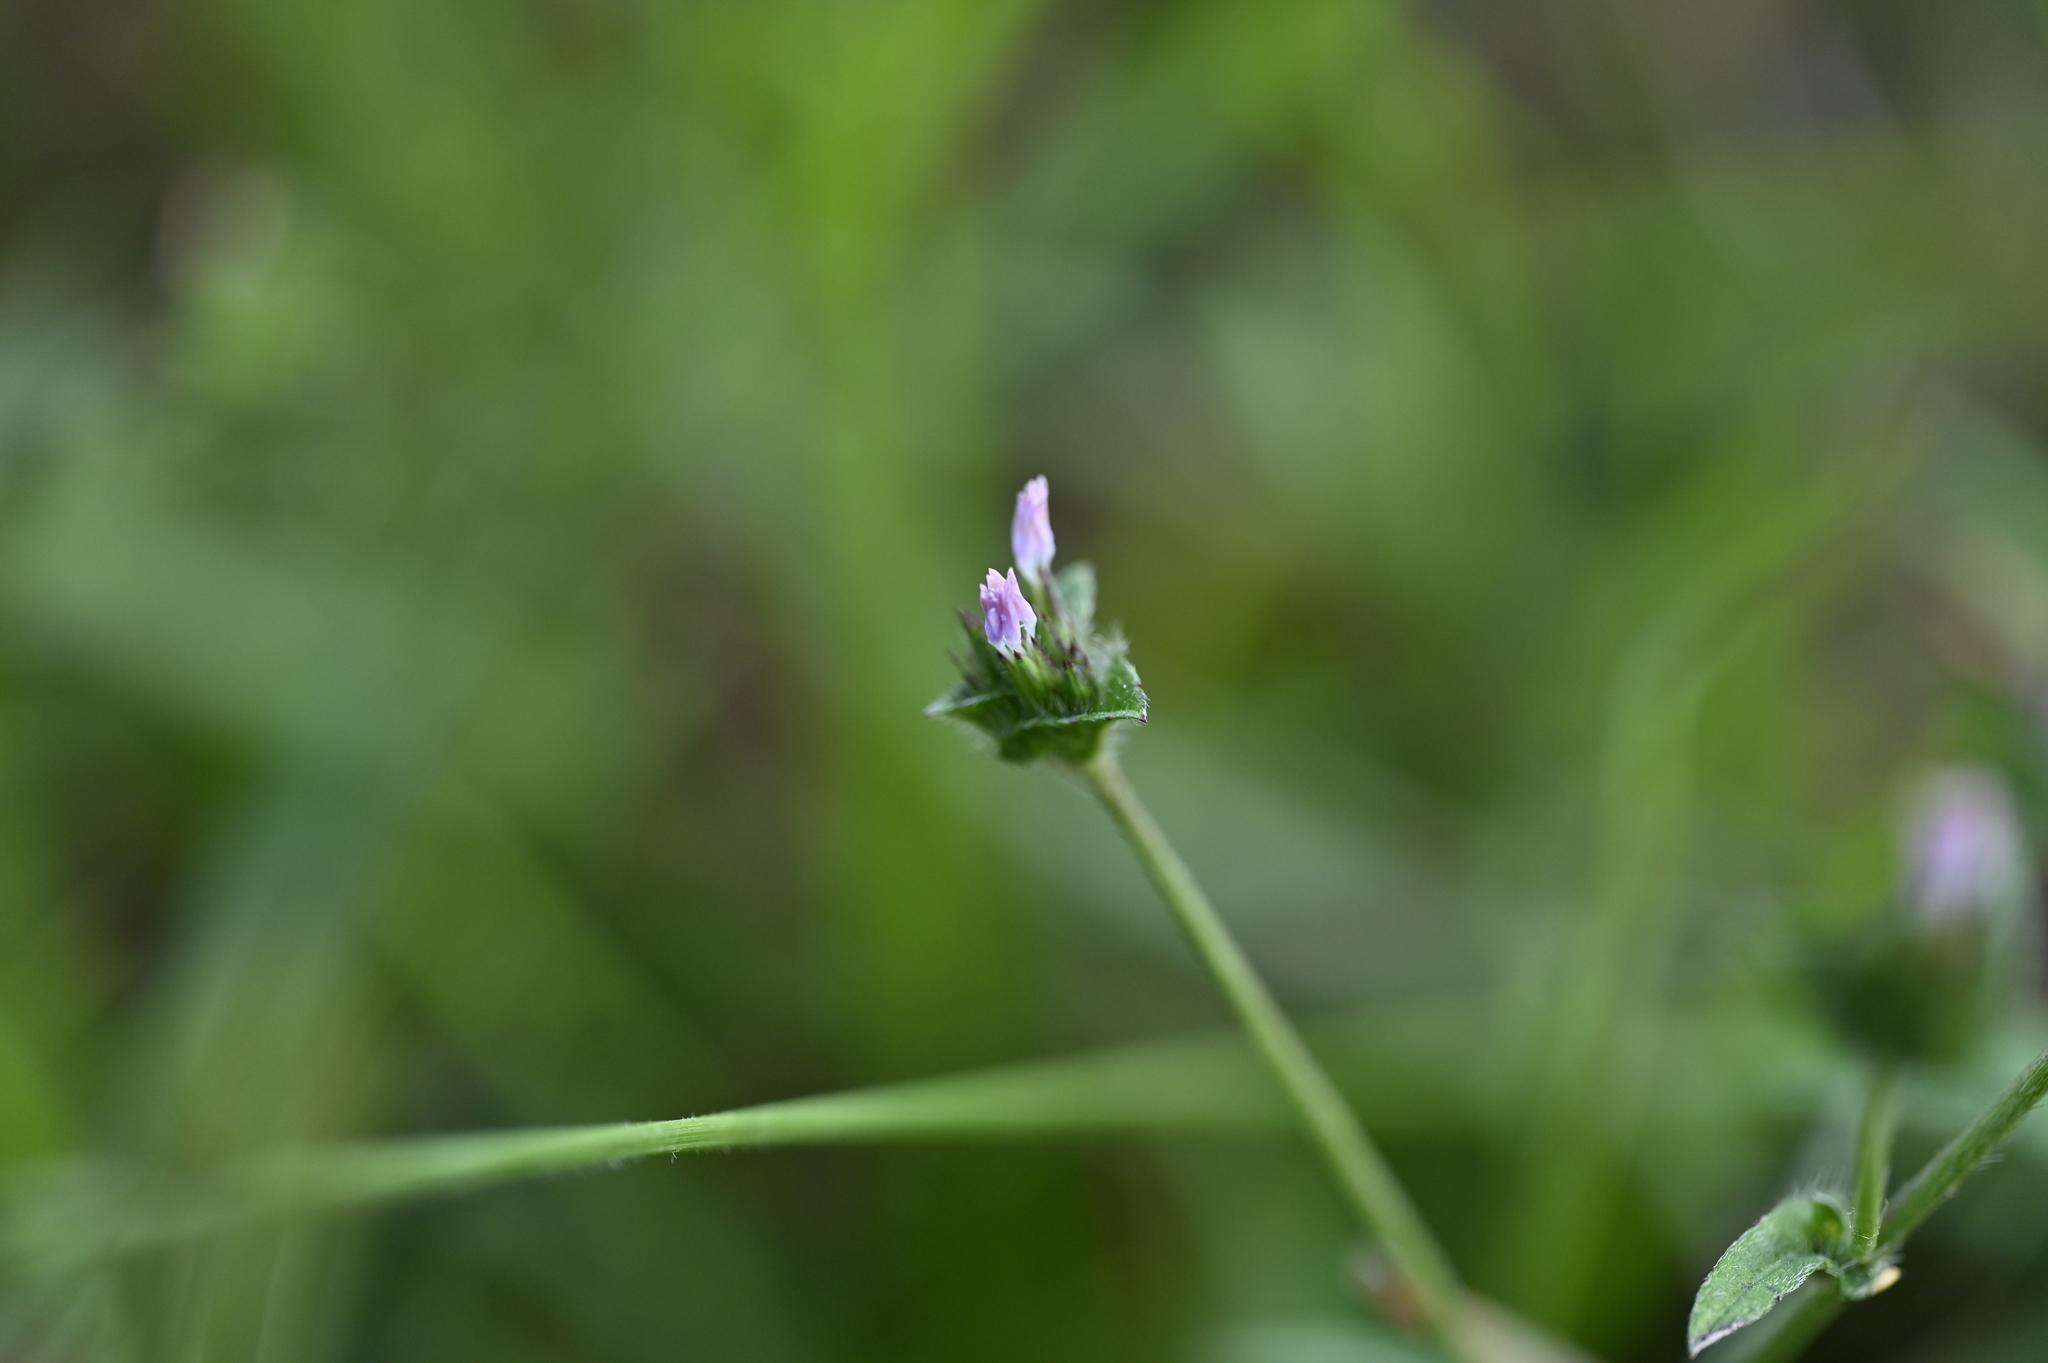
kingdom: Plantae
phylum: Tracheophyta
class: Magnoliopsida
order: Asterales
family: Asteraceae
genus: Elephantopus
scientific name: Elephantopus scaber
